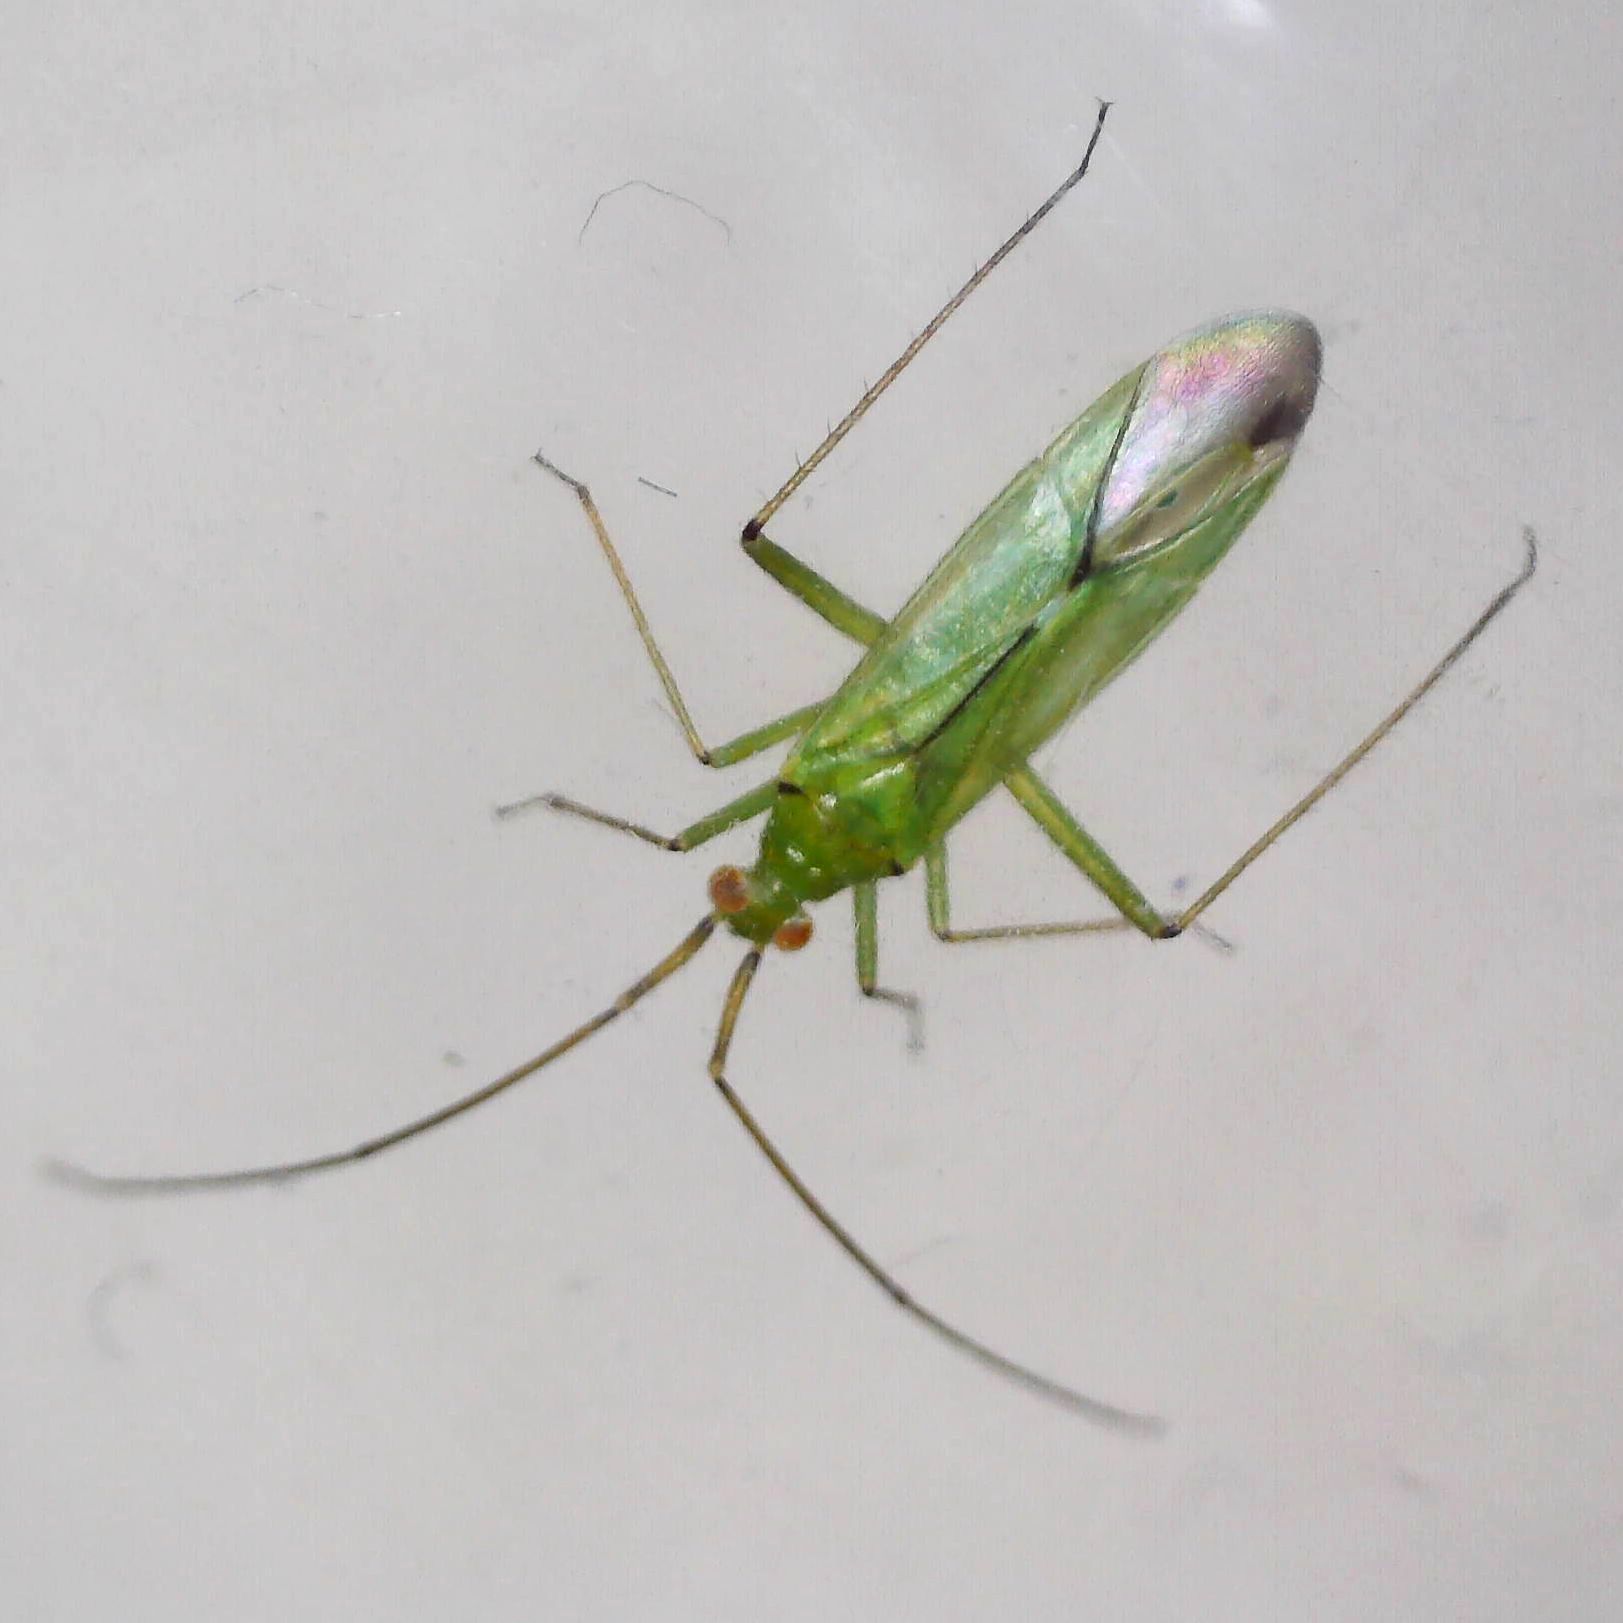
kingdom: Animalia
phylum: Arthropoda
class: Insecta
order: Hemiptera
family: Miridae
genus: Blepharidopterus
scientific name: Blepharidopterus angulatus
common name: Plant bug
